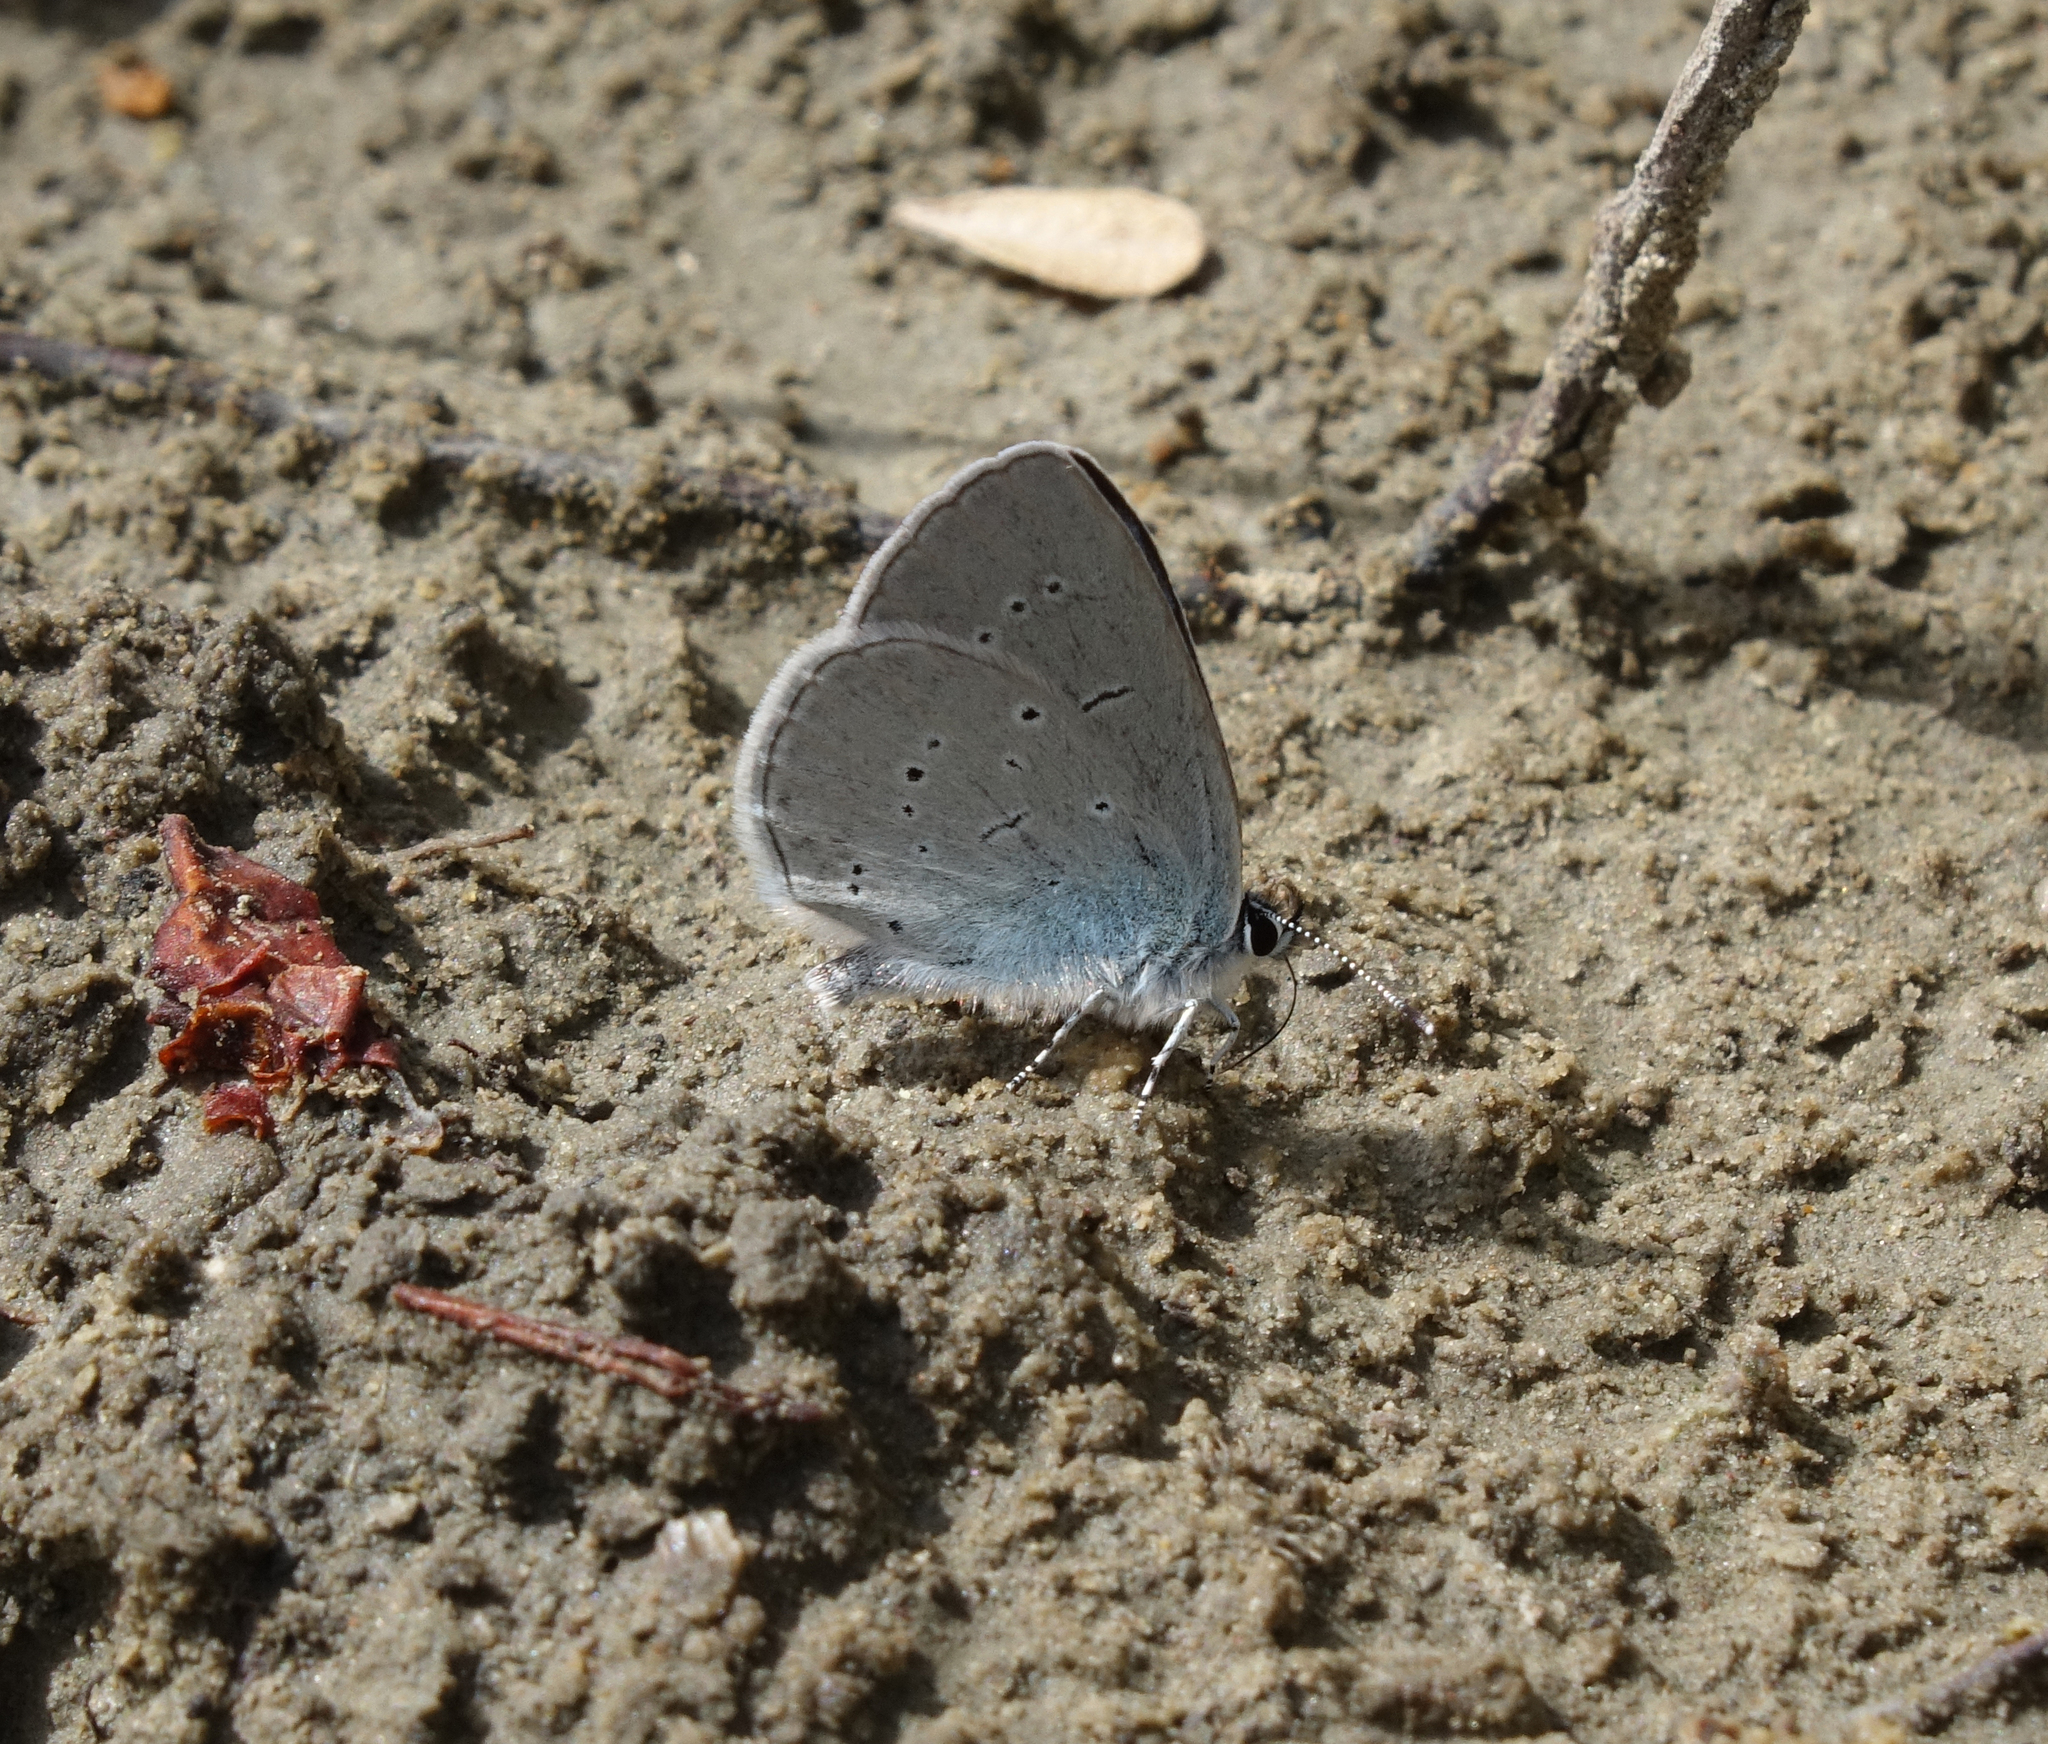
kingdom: Animalia
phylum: Arthropoda
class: Insecta
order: Lepidoptera
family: Lycaenidae
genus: Everes
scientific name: Everes sebrus
